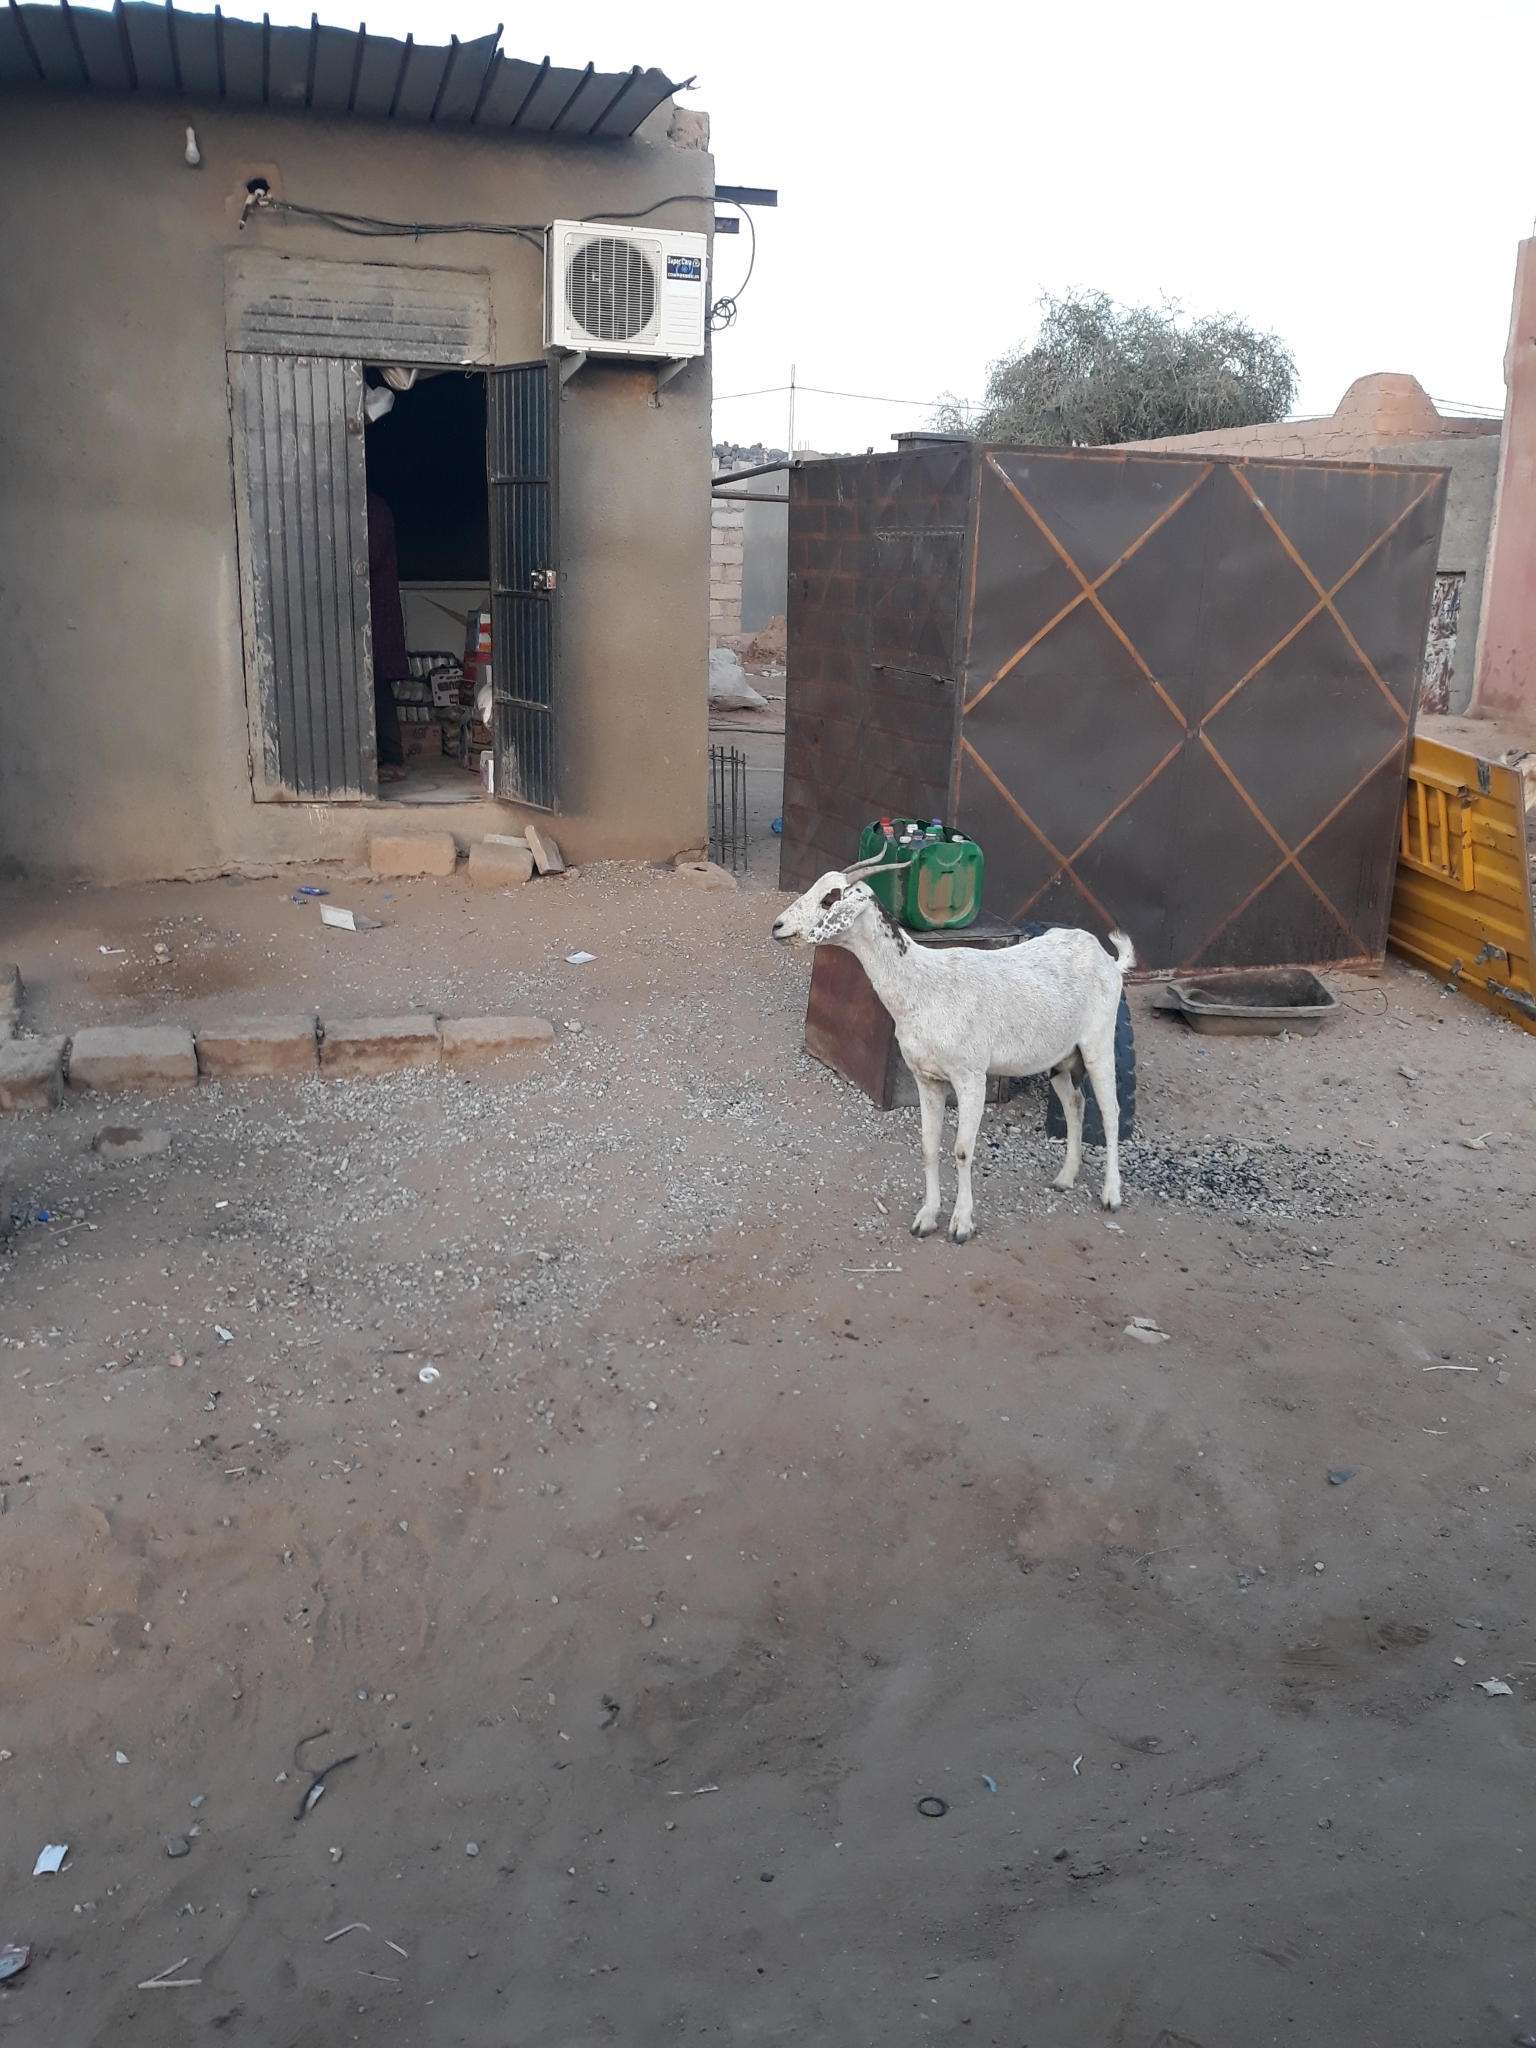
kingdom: Animalia
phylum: Chordata
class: Mammalia
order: Artiodactyla
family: Bovidae
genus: Capra
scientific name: Capra hircus
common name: Domestic goat
